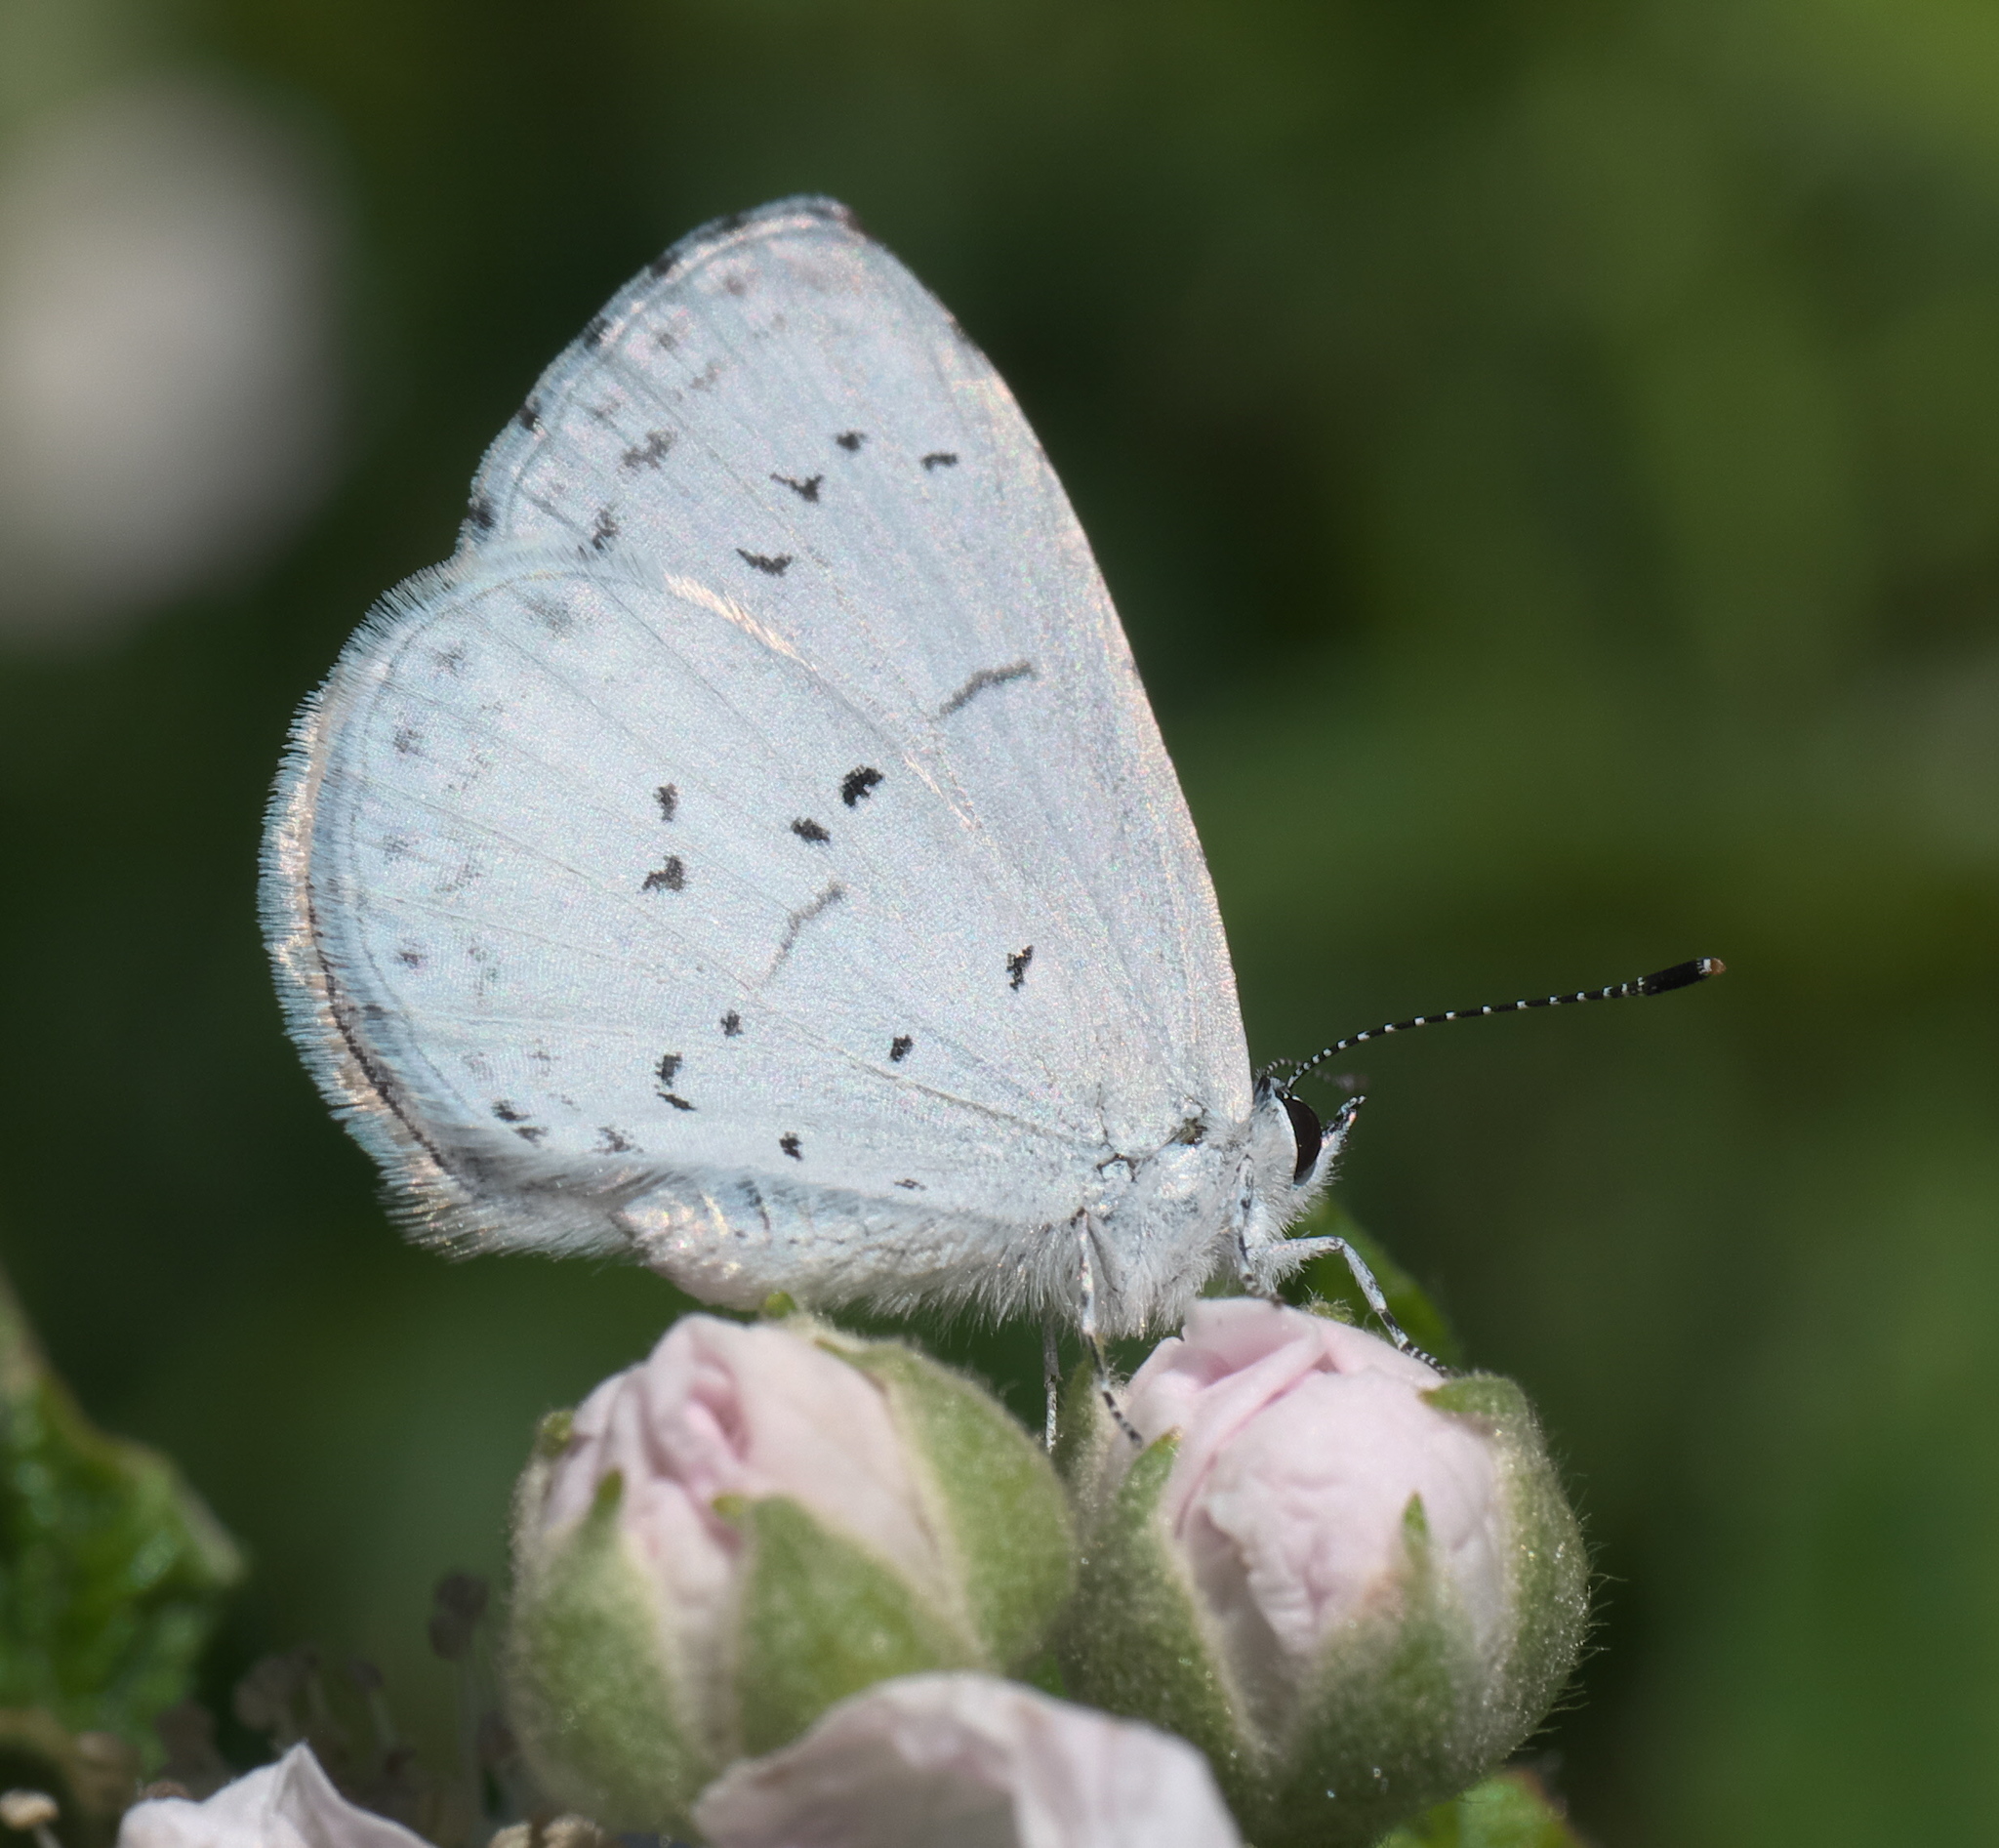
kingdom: Animalia
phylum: Arthropoda
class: Insecta
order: Lepidoptera
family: Lycaenidae
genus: Cyaniris
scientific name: Cyaniris neglecta
